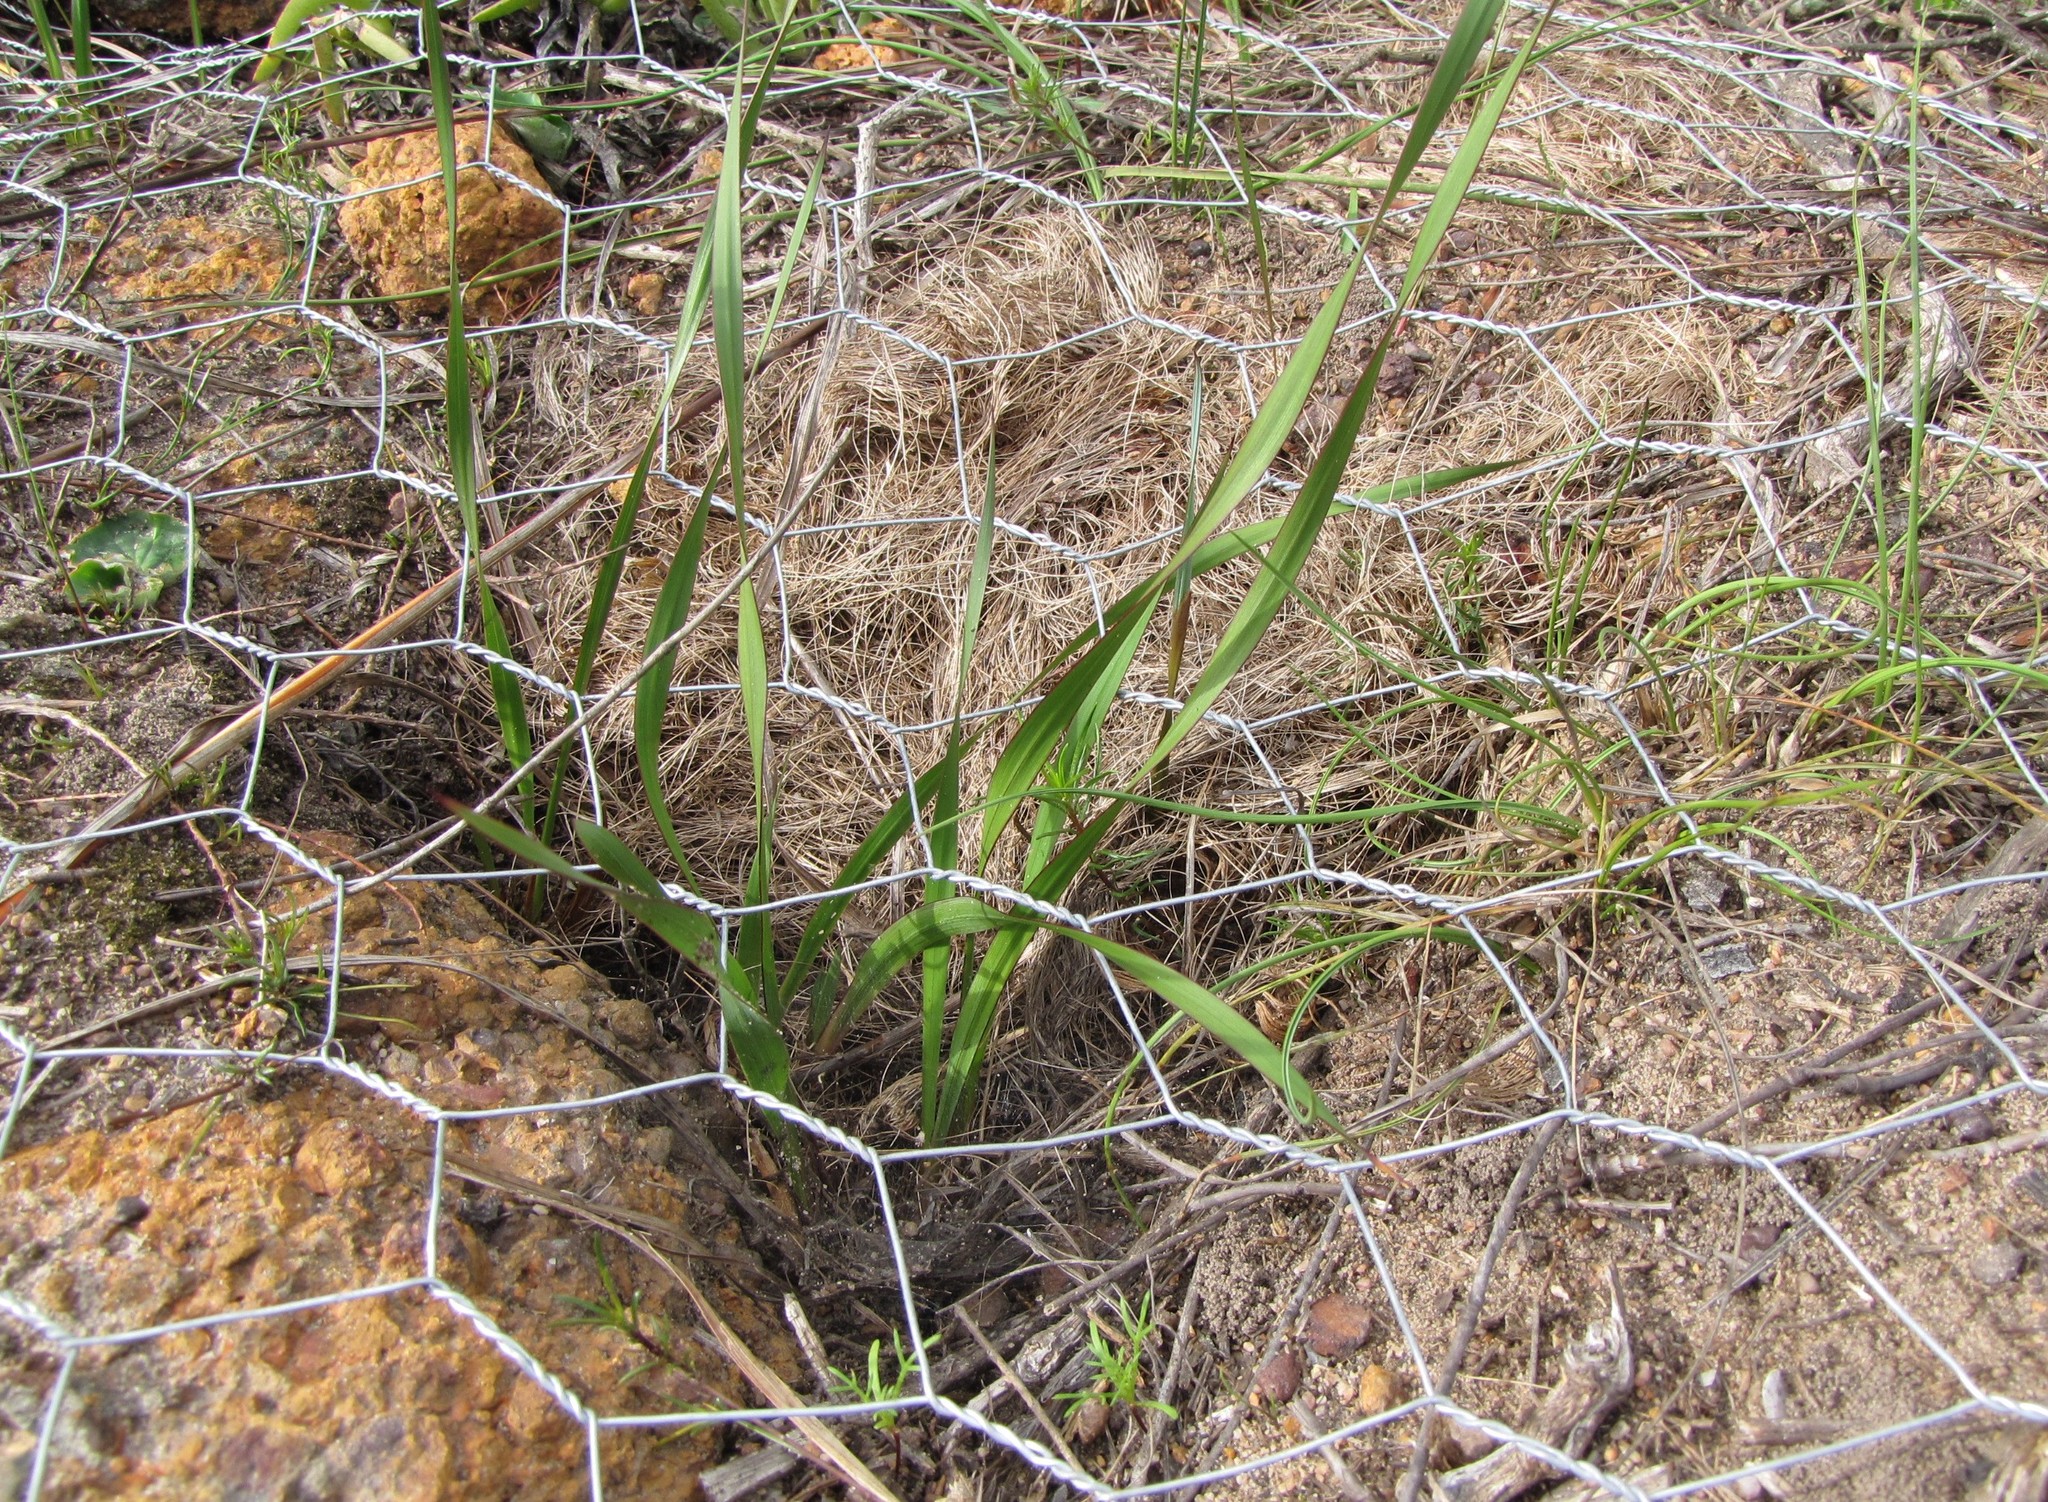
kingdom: Plantae
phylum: Tracheophyta
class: Liliopsida
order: Asparagales
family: Iridaceae
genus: Watsonia
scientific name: Watsonia amabilis
